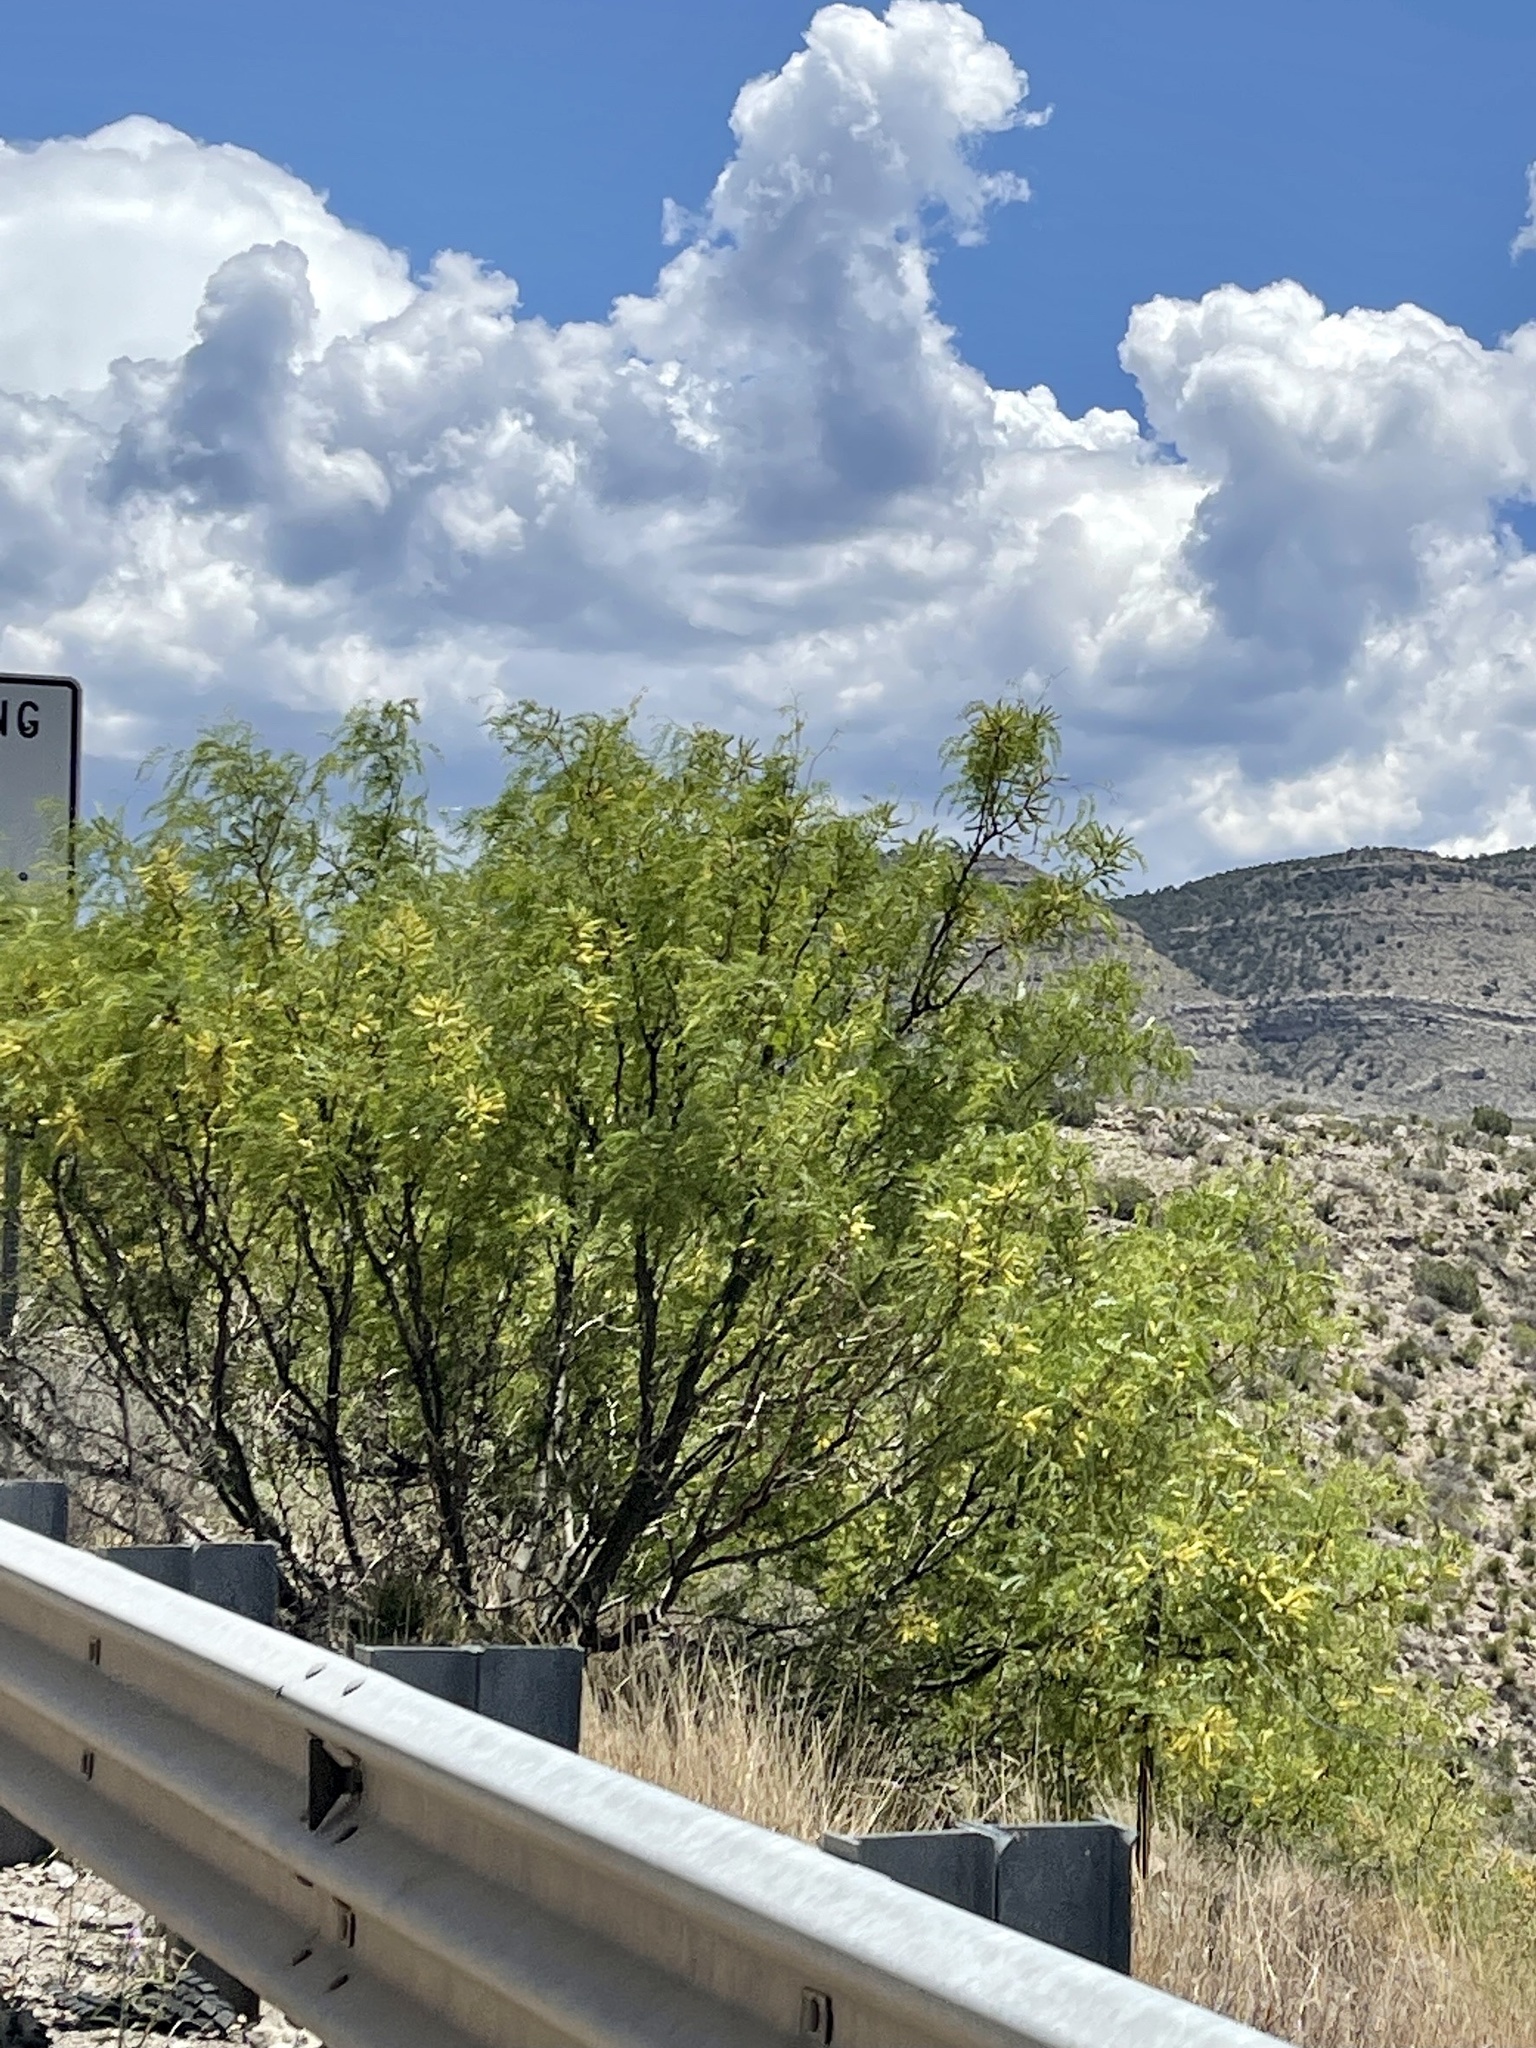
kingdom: Plantae
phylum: Tracheophyta
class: Magnoliopsida
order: Fabales
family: Fabaceae
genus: Prosopis
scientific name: Prosopis glandulosa
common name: Honey mesquite
